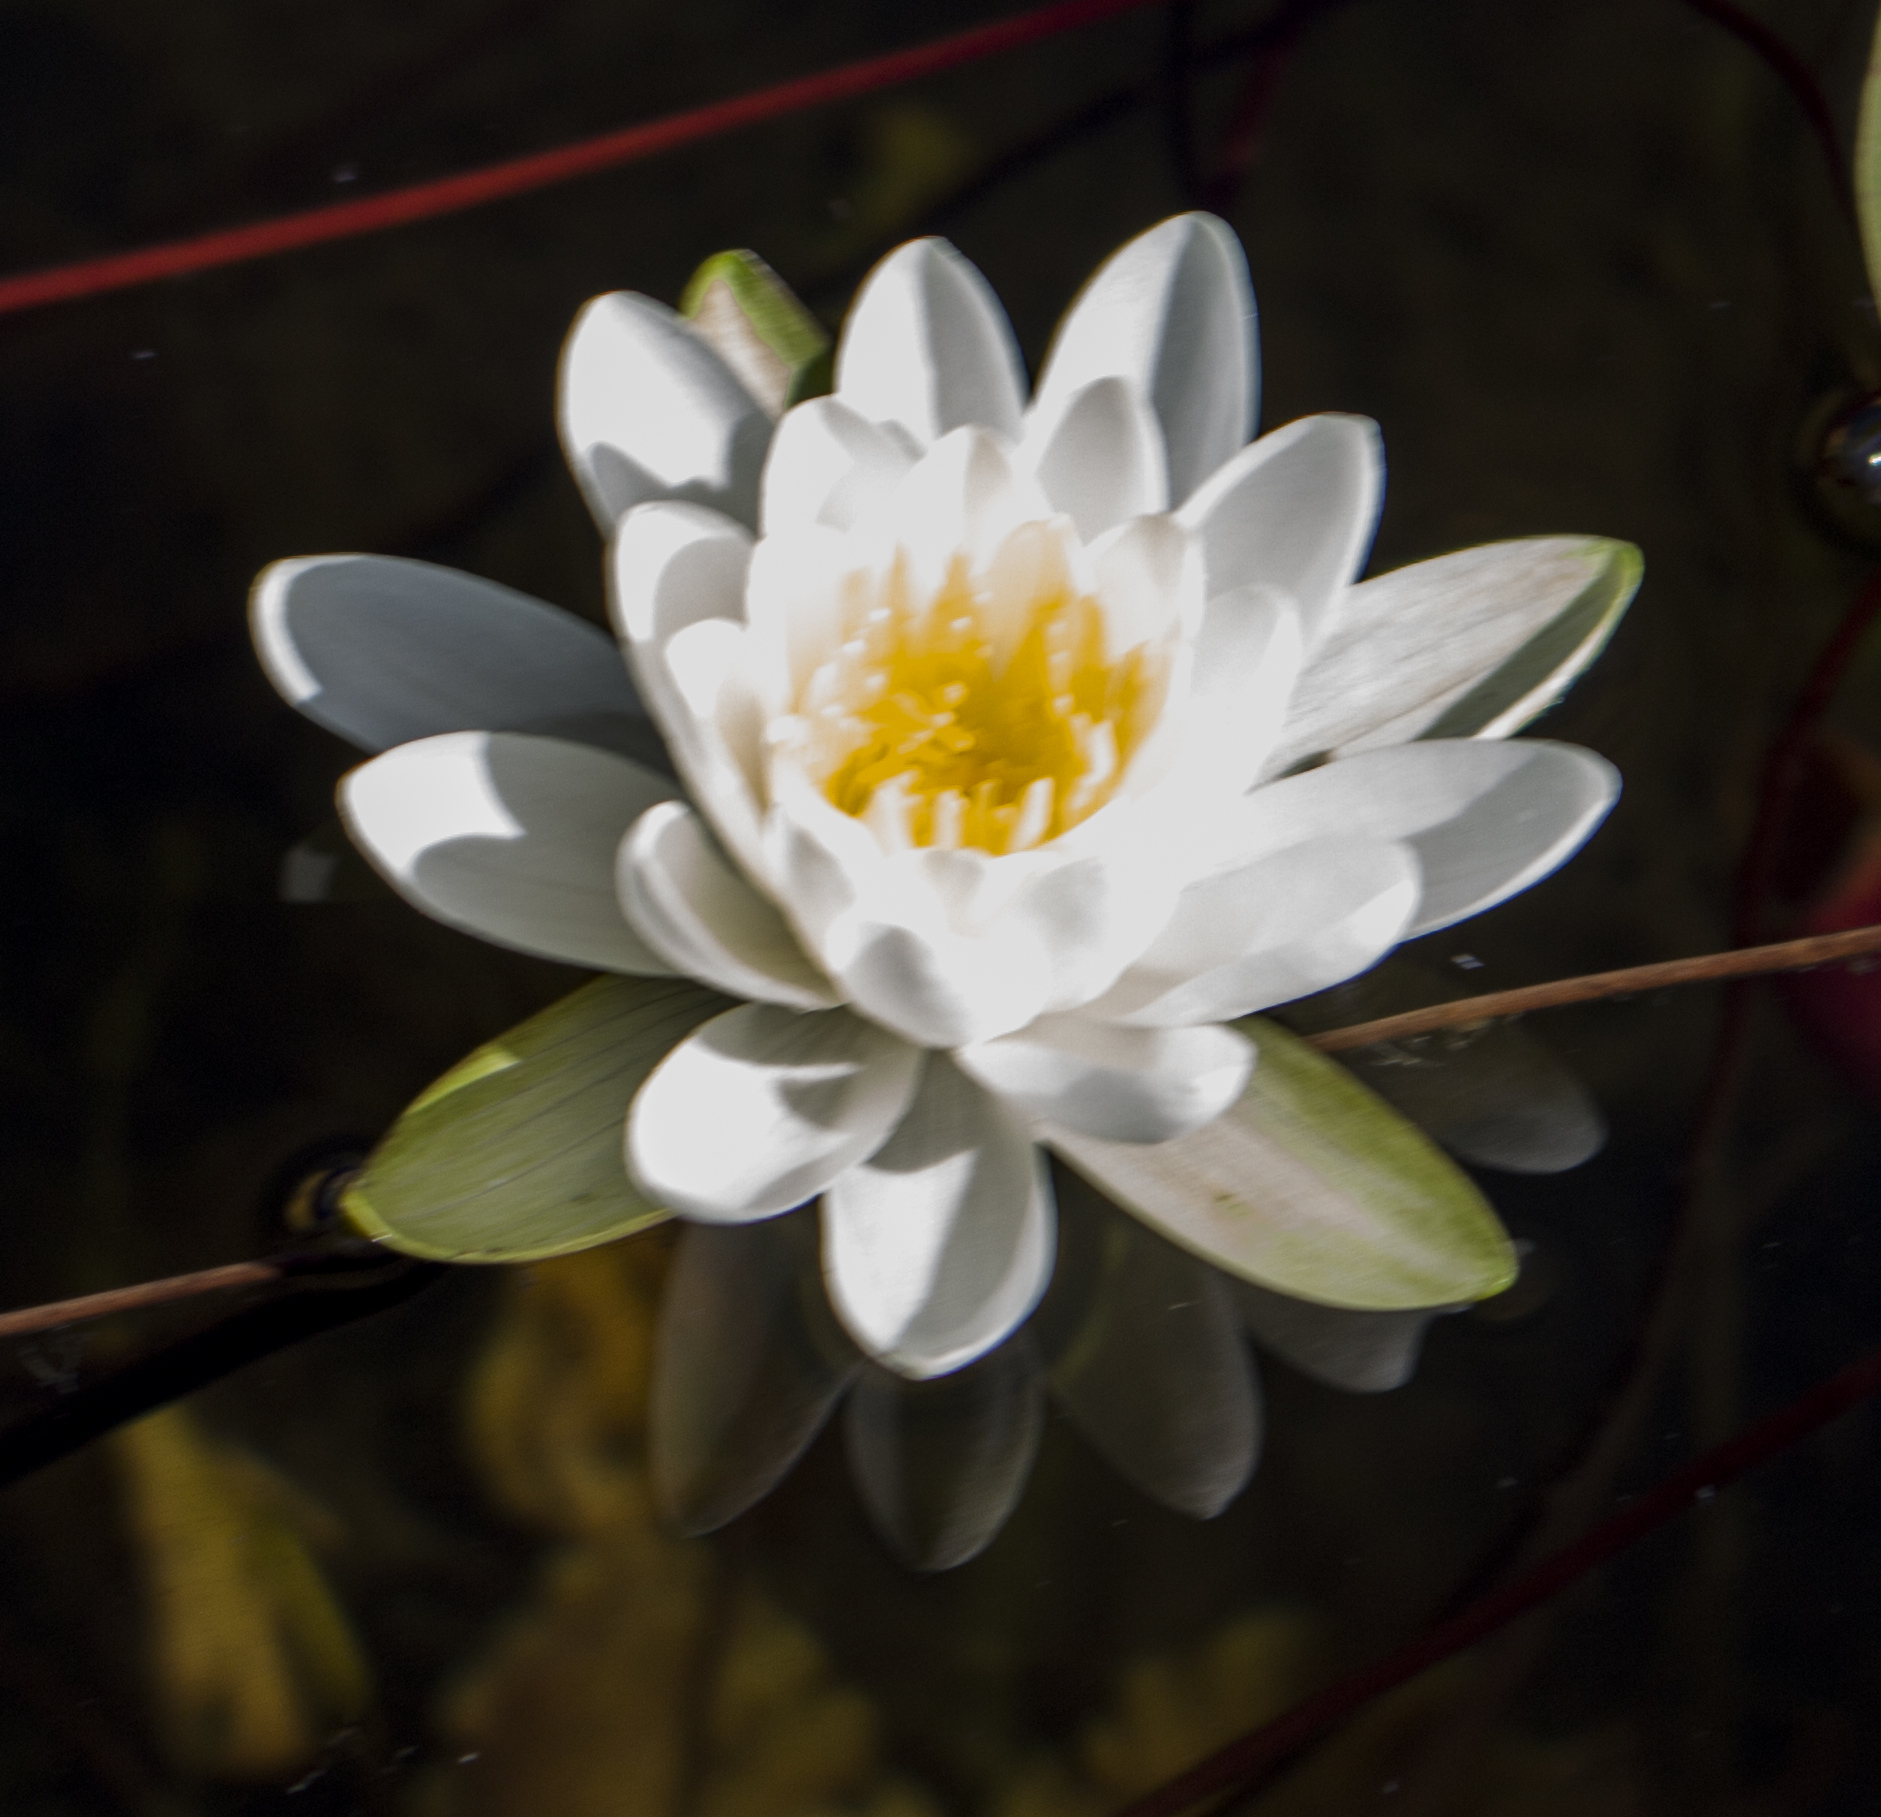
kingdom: Plantae
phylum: Tracheophyta
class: Magnoliopsida
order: Nymphaeales
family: Nymphaeaceae
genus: Nymphaea
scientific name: Nymphaea odorata
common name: Fragrant water-lily
